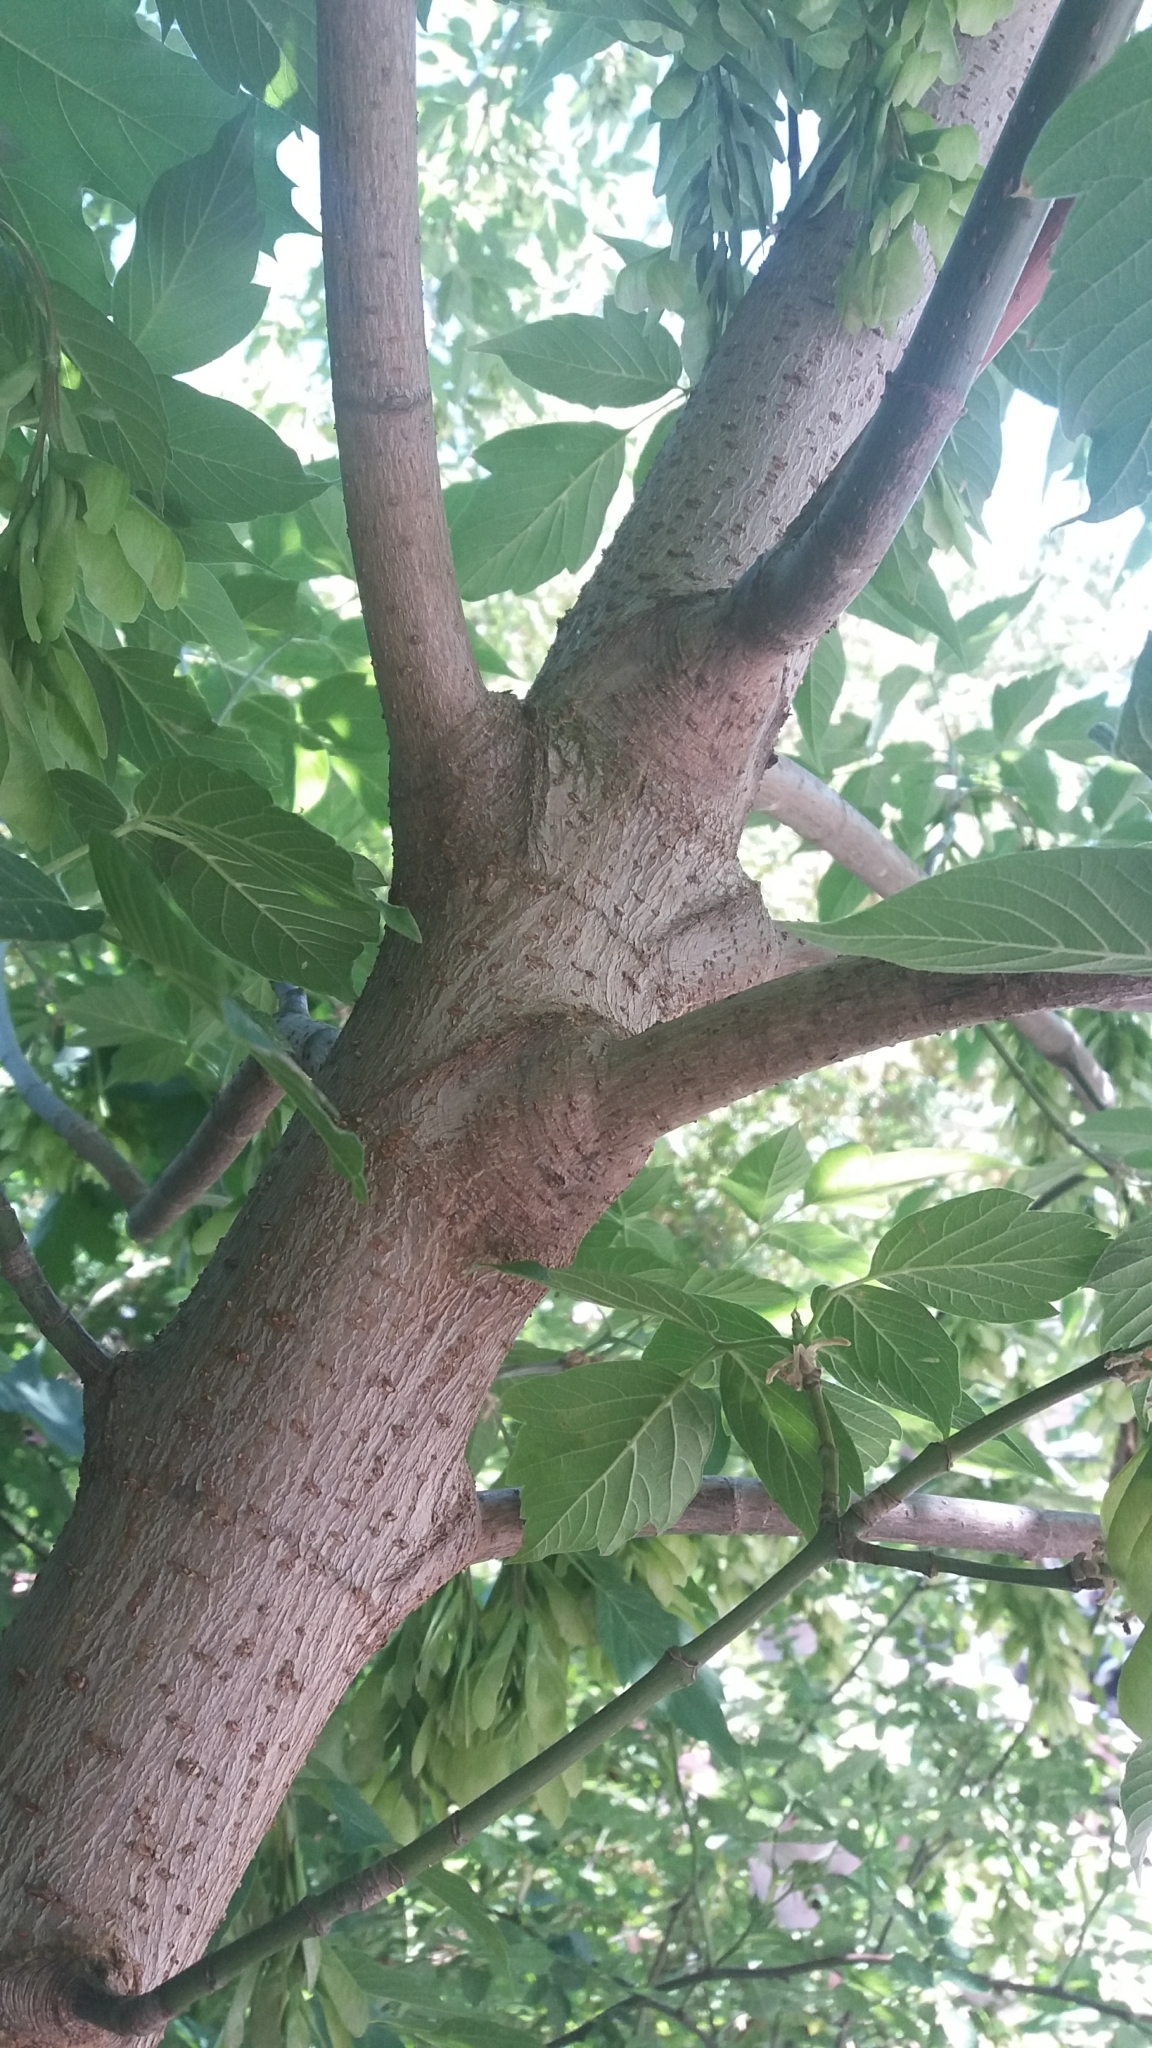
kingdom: Plantae
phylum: Tracheophyta
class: Magnoliopsida
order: Sapindales
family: Sapindaceae
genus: Acer
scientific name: Acer negundo
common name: Ashleaf maple
